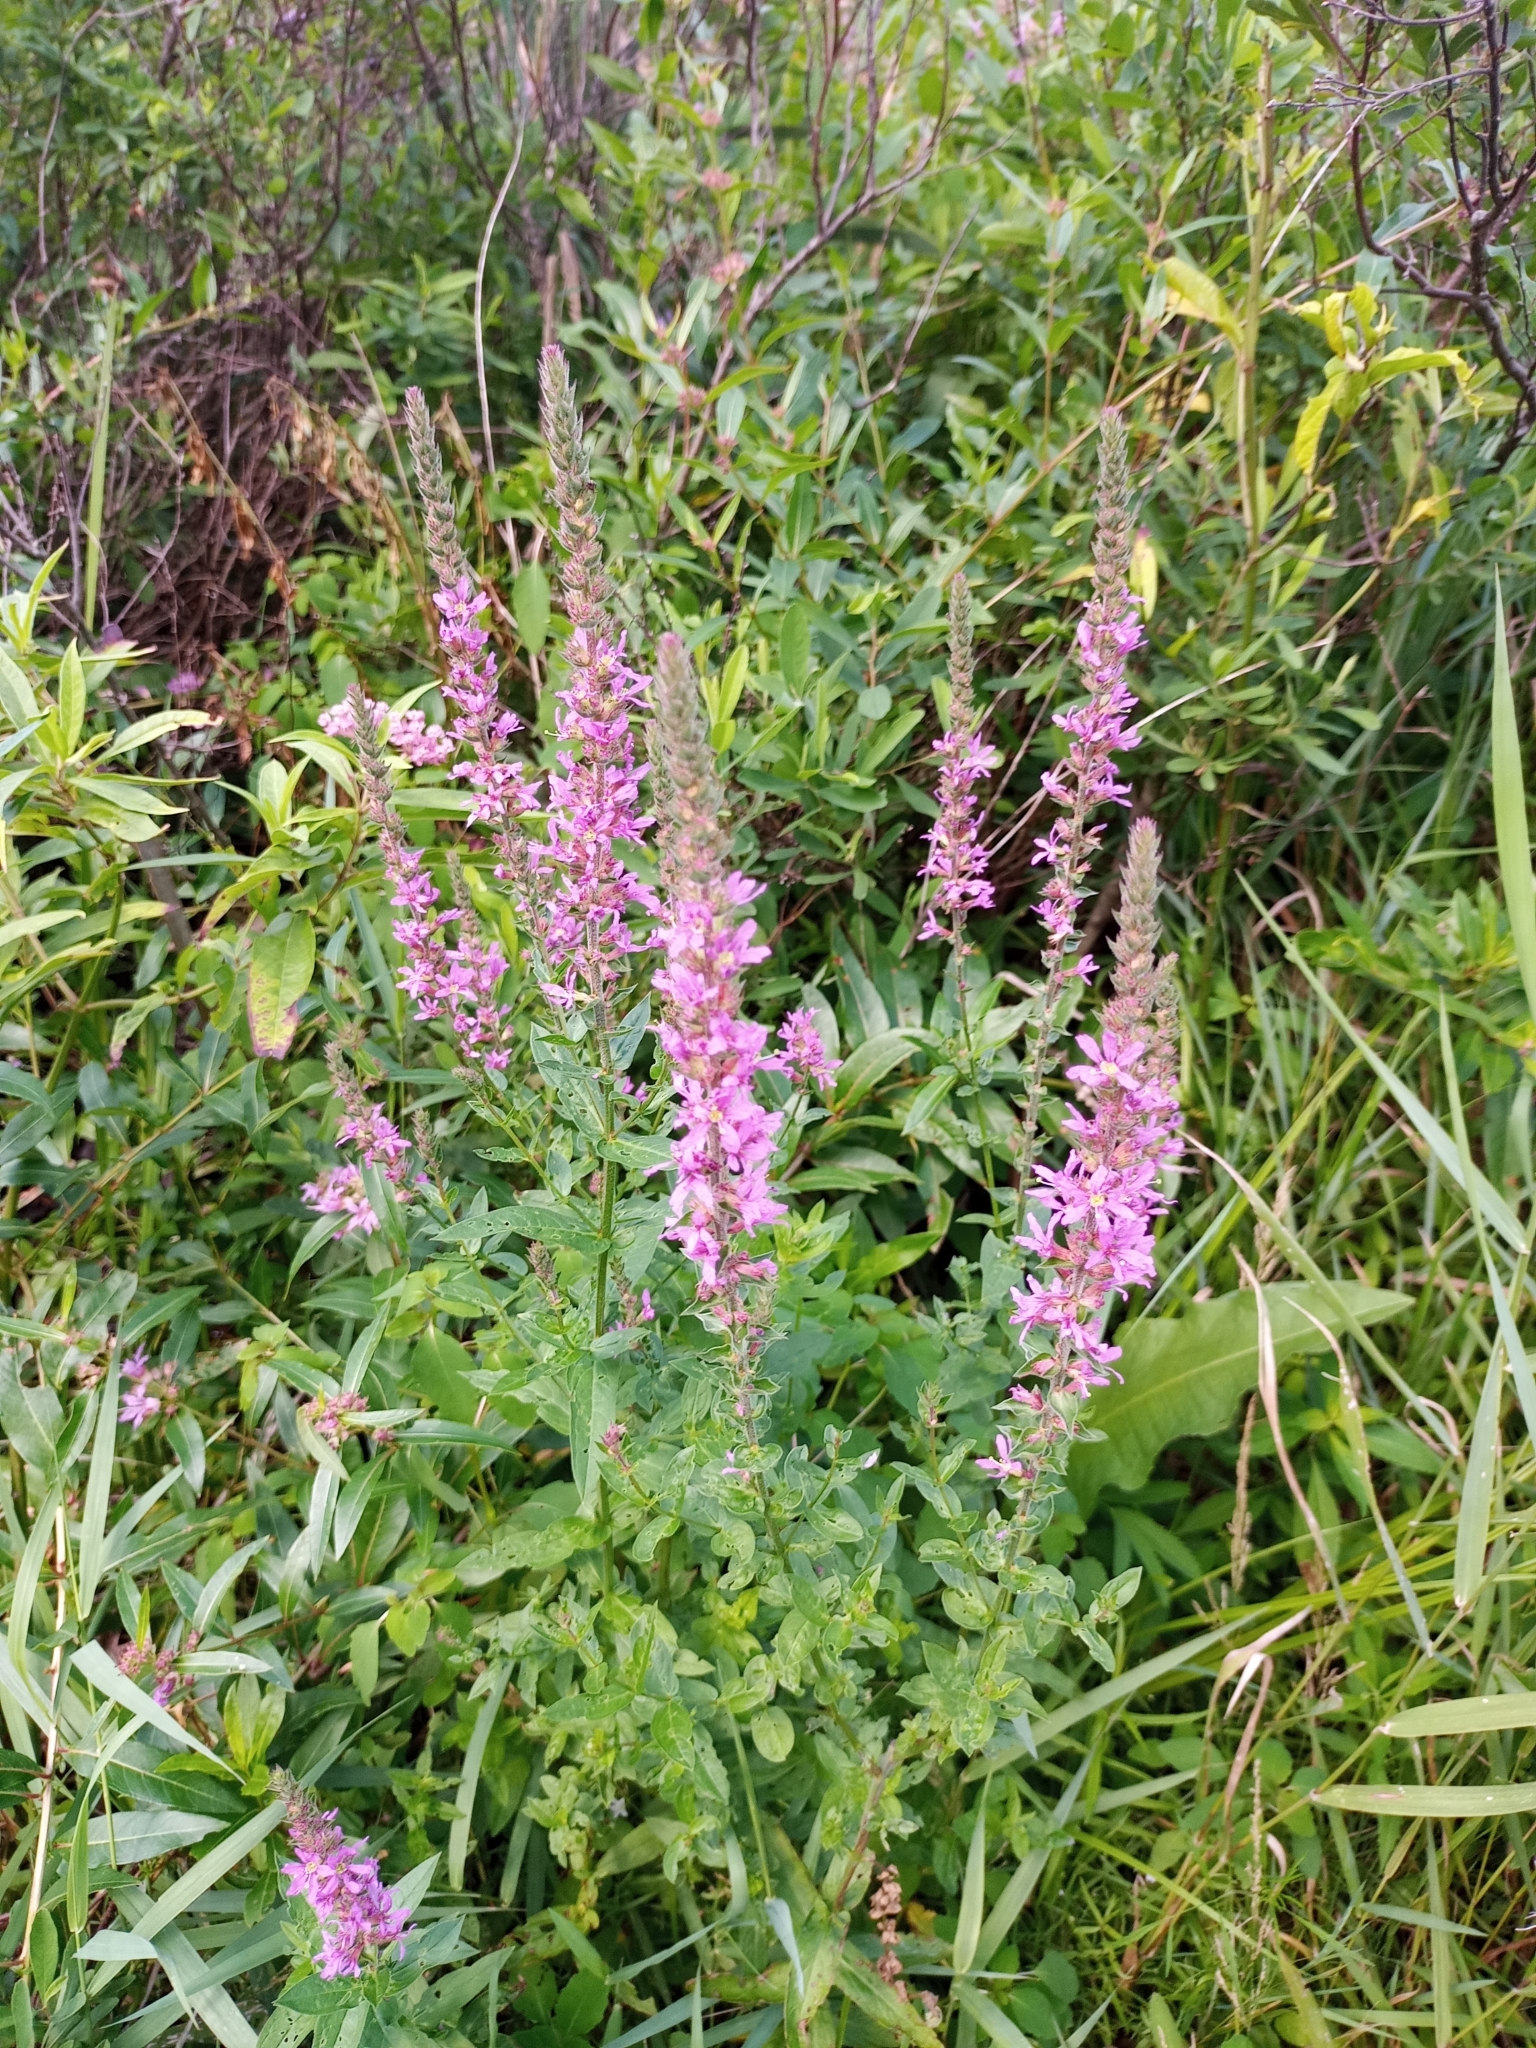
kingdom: Plantae
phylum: Tracheophyta
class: Magnoliopsida
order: Myrtales
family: Lythraceae
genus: Lythrum
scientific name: Lythrum salicaria
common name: Purple loosestrife
